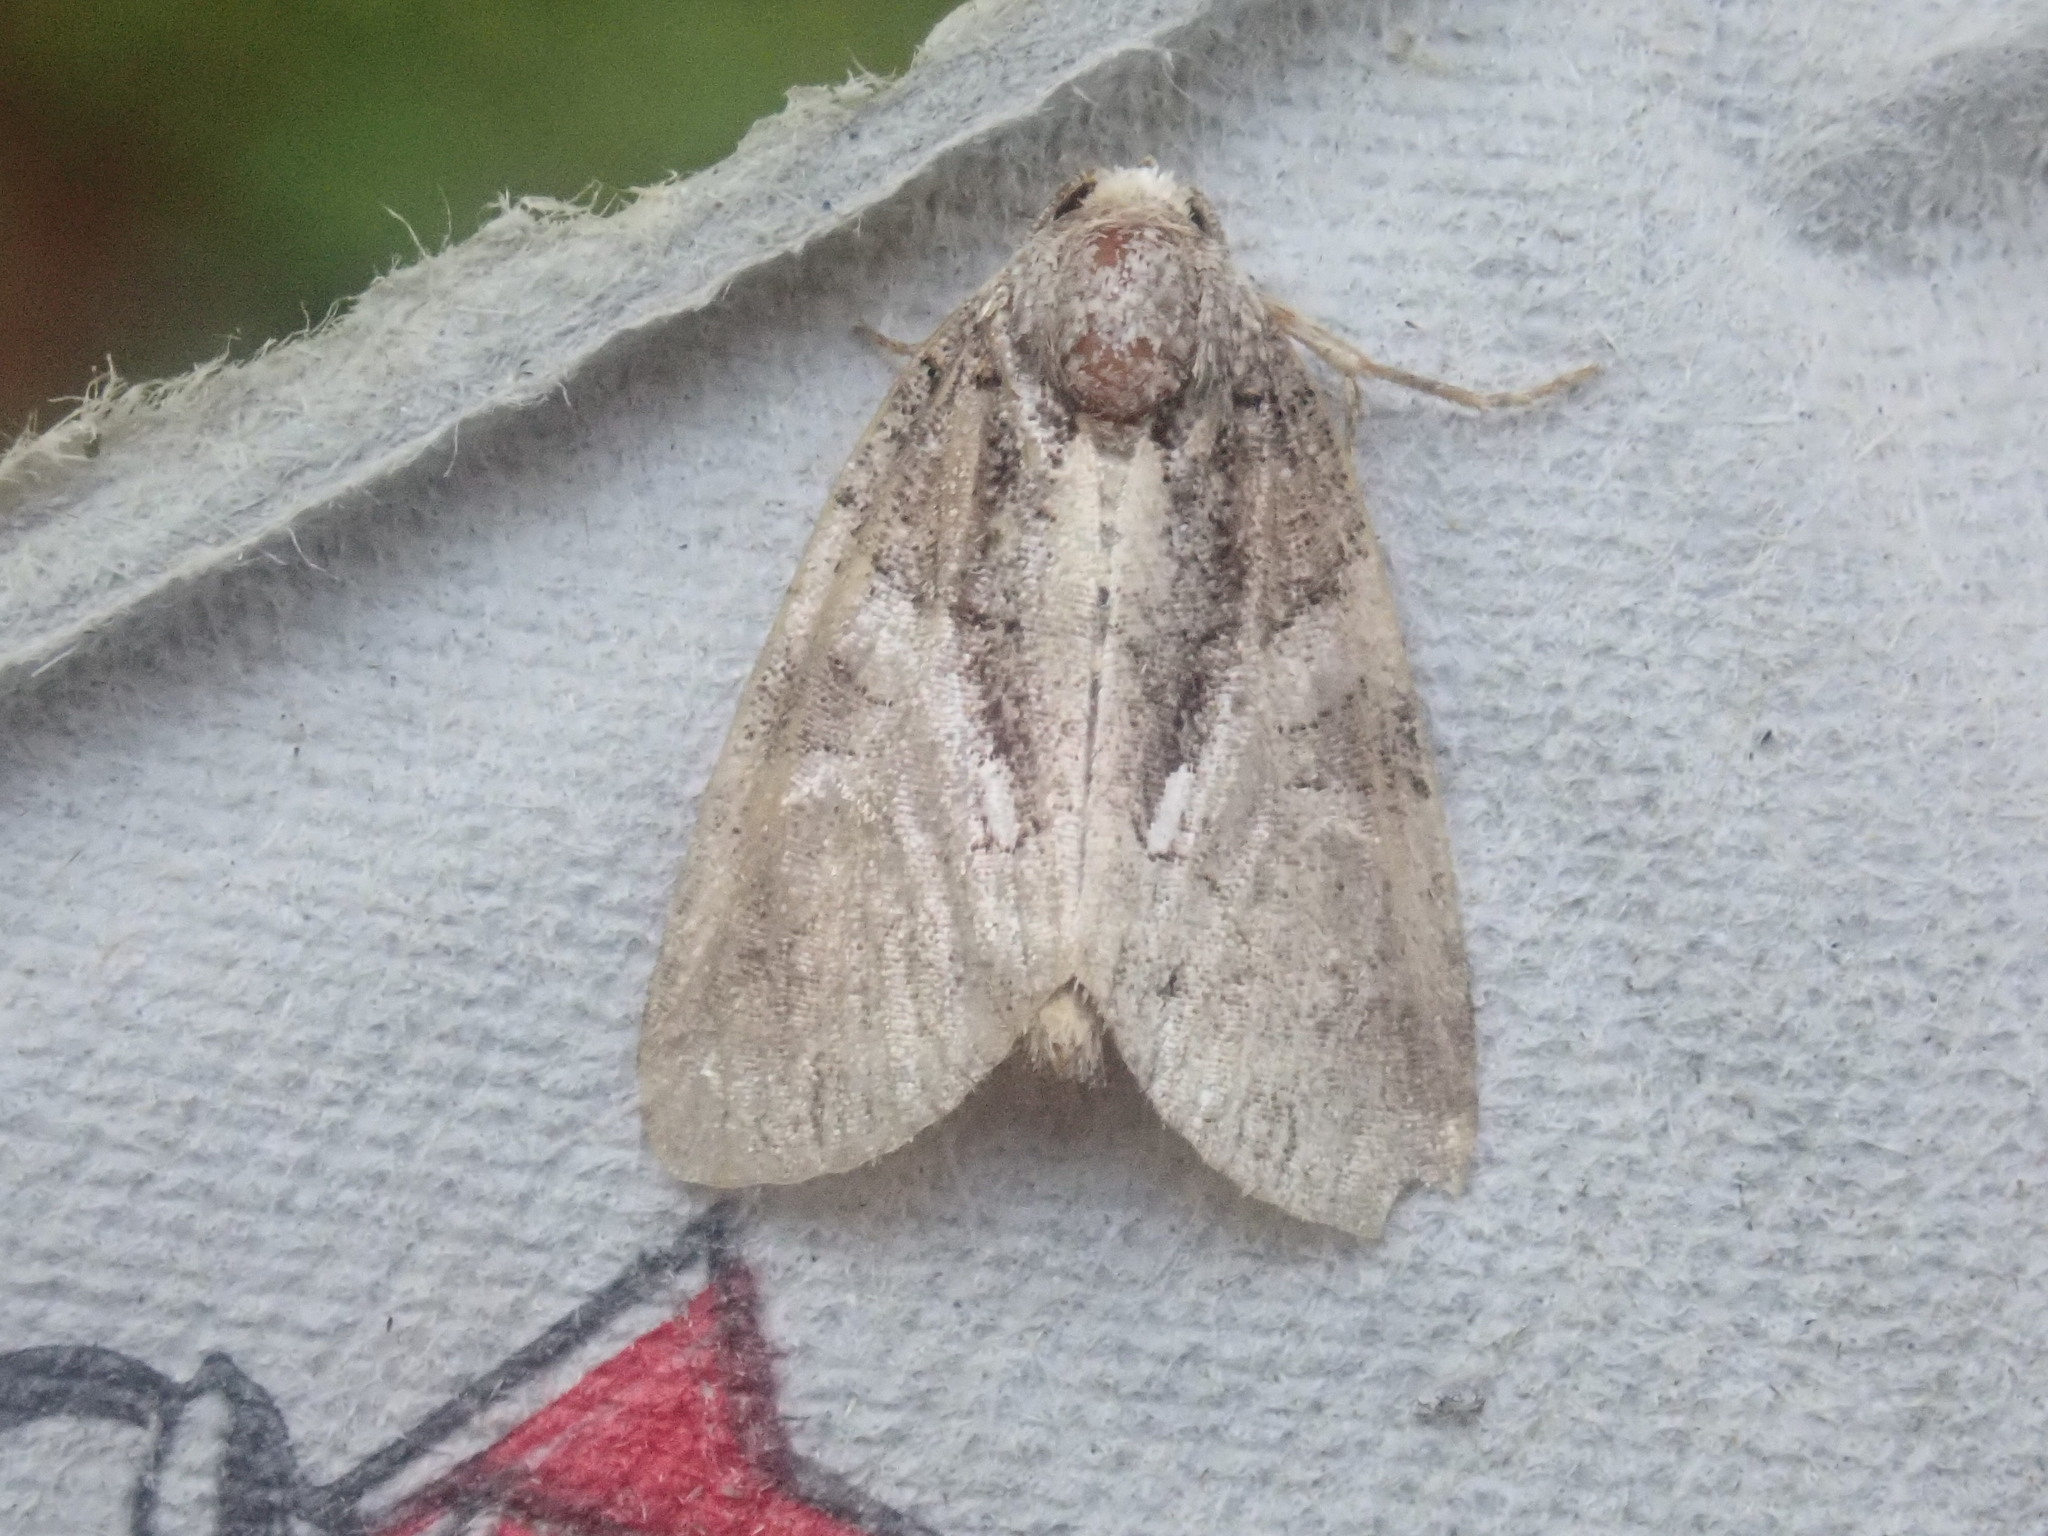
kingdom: Animalia
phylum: Arthropoda
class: Insecta
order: Lepidoptera
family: Noctuidae
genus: Chytonix
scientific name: Chytonix palliatricula
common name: Cloaked marvel
